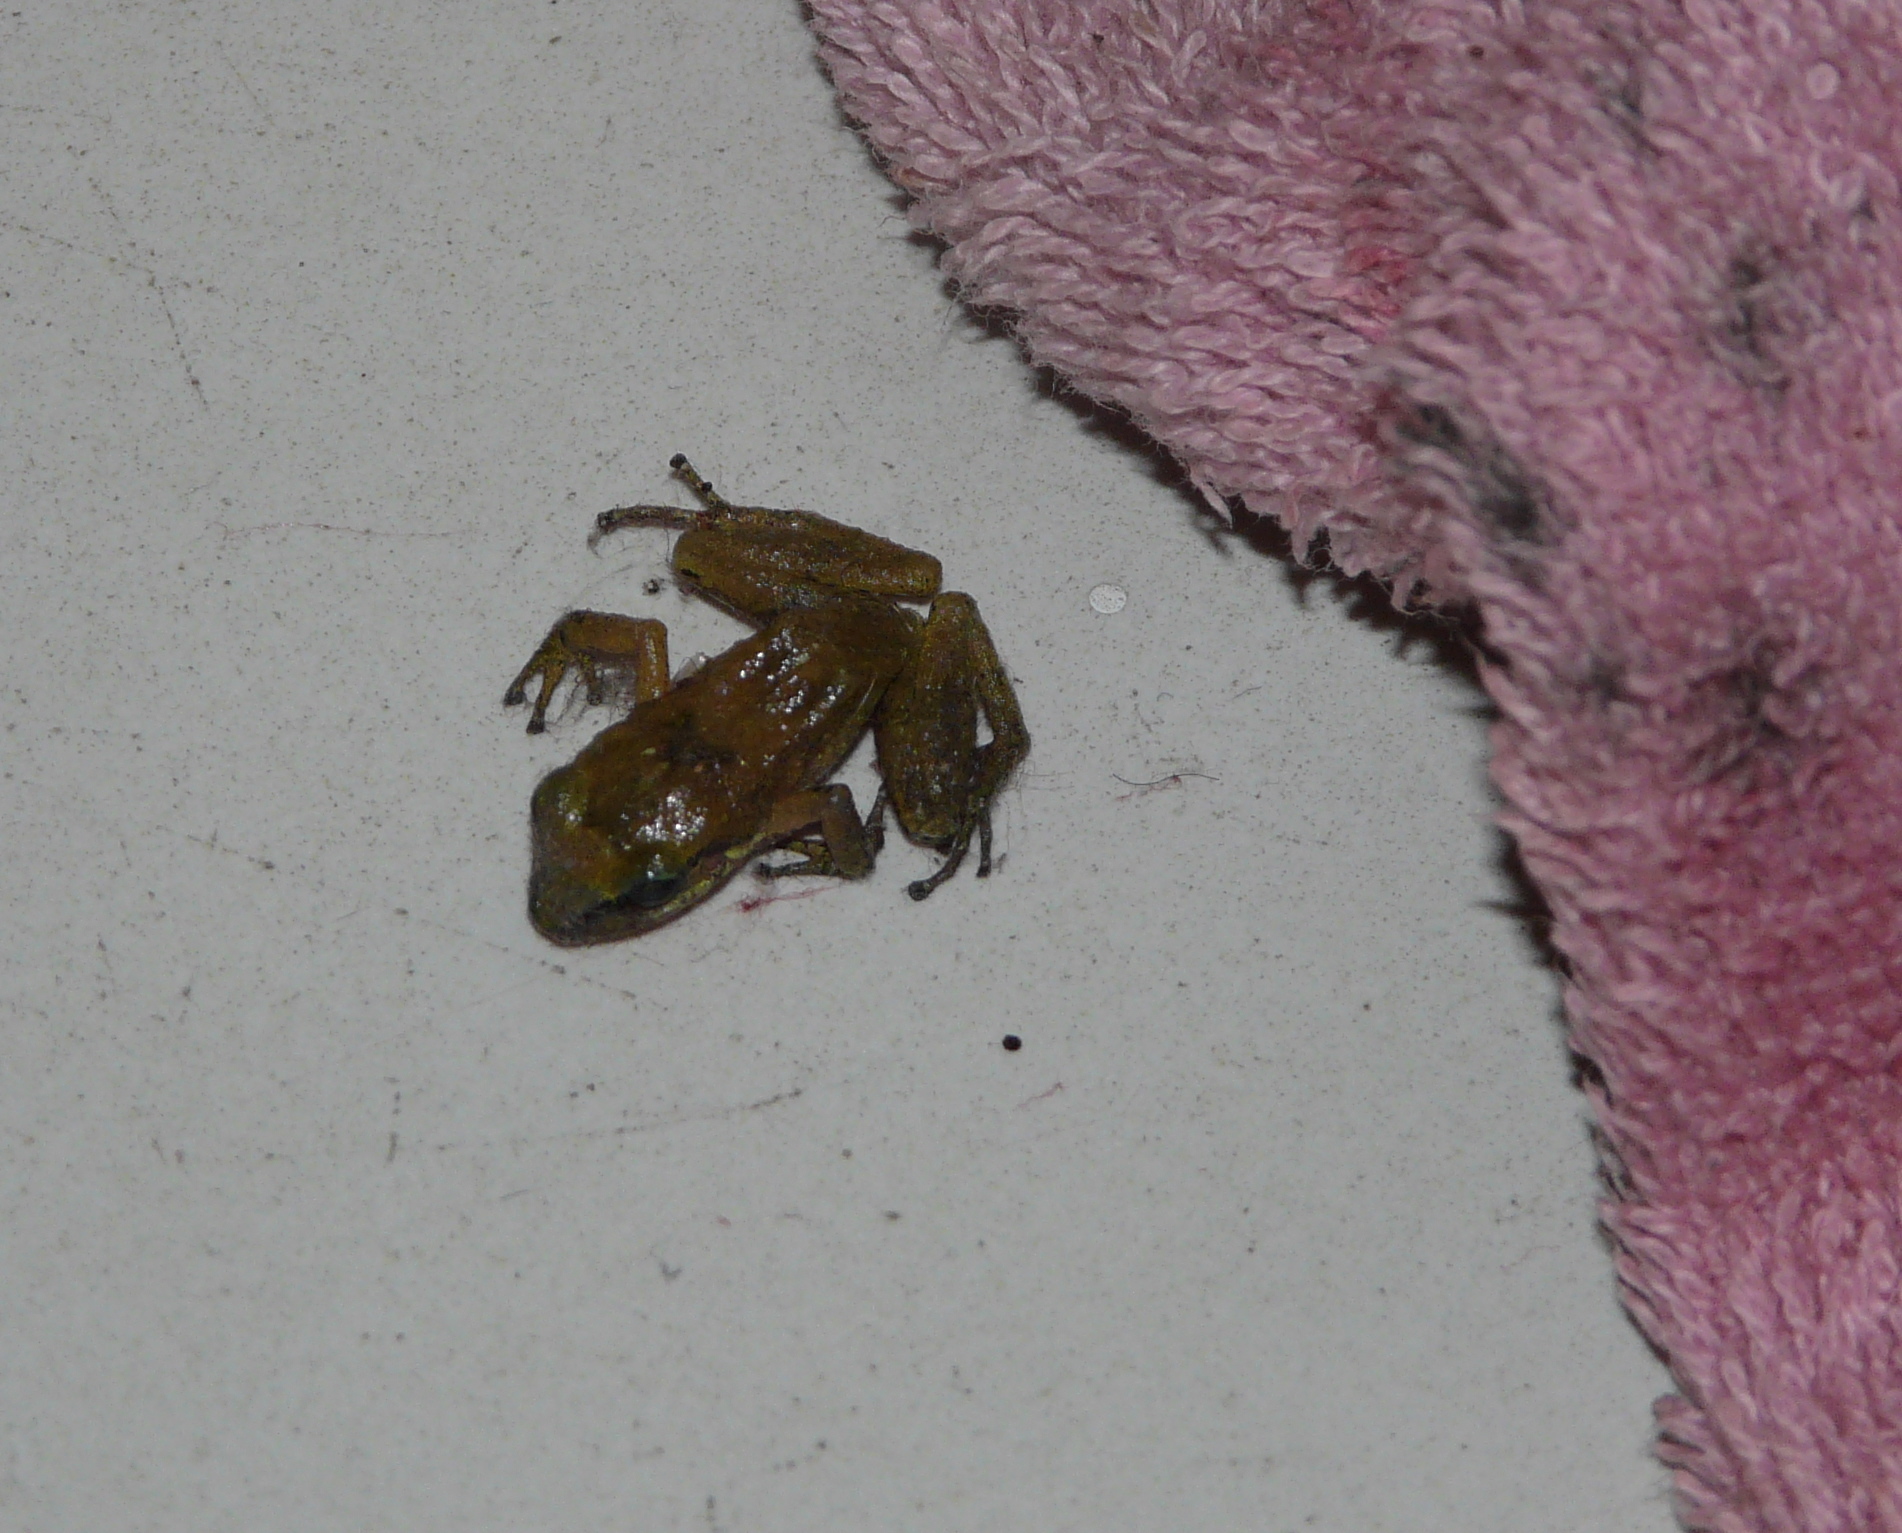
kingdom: Animalia
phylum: Chordata
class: Amphibia
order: Anura
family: Eleutherodactylidae
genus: Eleutherodactylus
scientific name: Eleutherodactylus johnstonei
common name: Johnstone's robber frog
